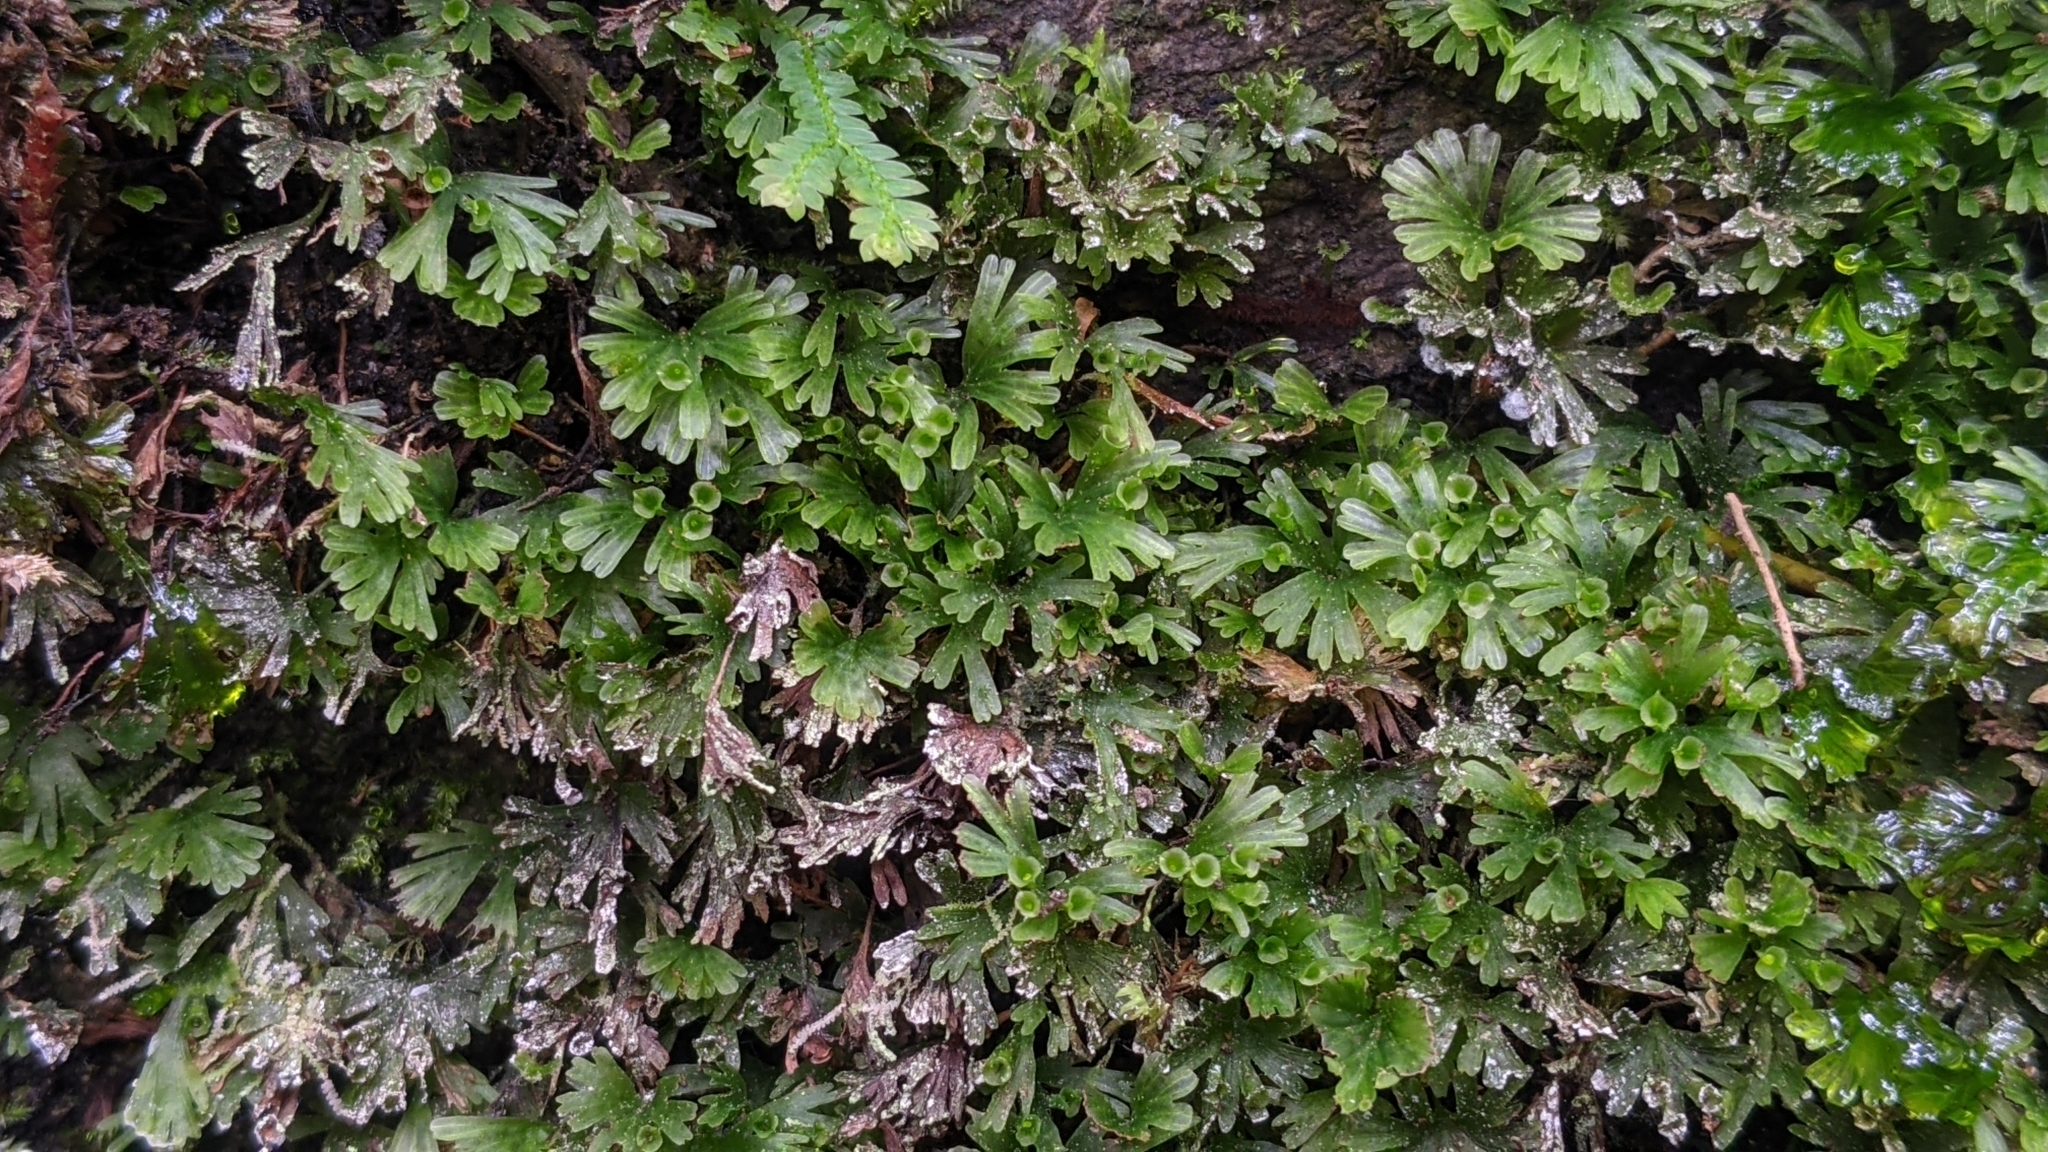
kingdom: Plantae
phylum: Tracheophyta
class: Polypodiopsida
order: Hymenophyllales
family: Hymenophyllaceae
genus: Crepidomanes
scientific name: Crepidomanes parvulum
